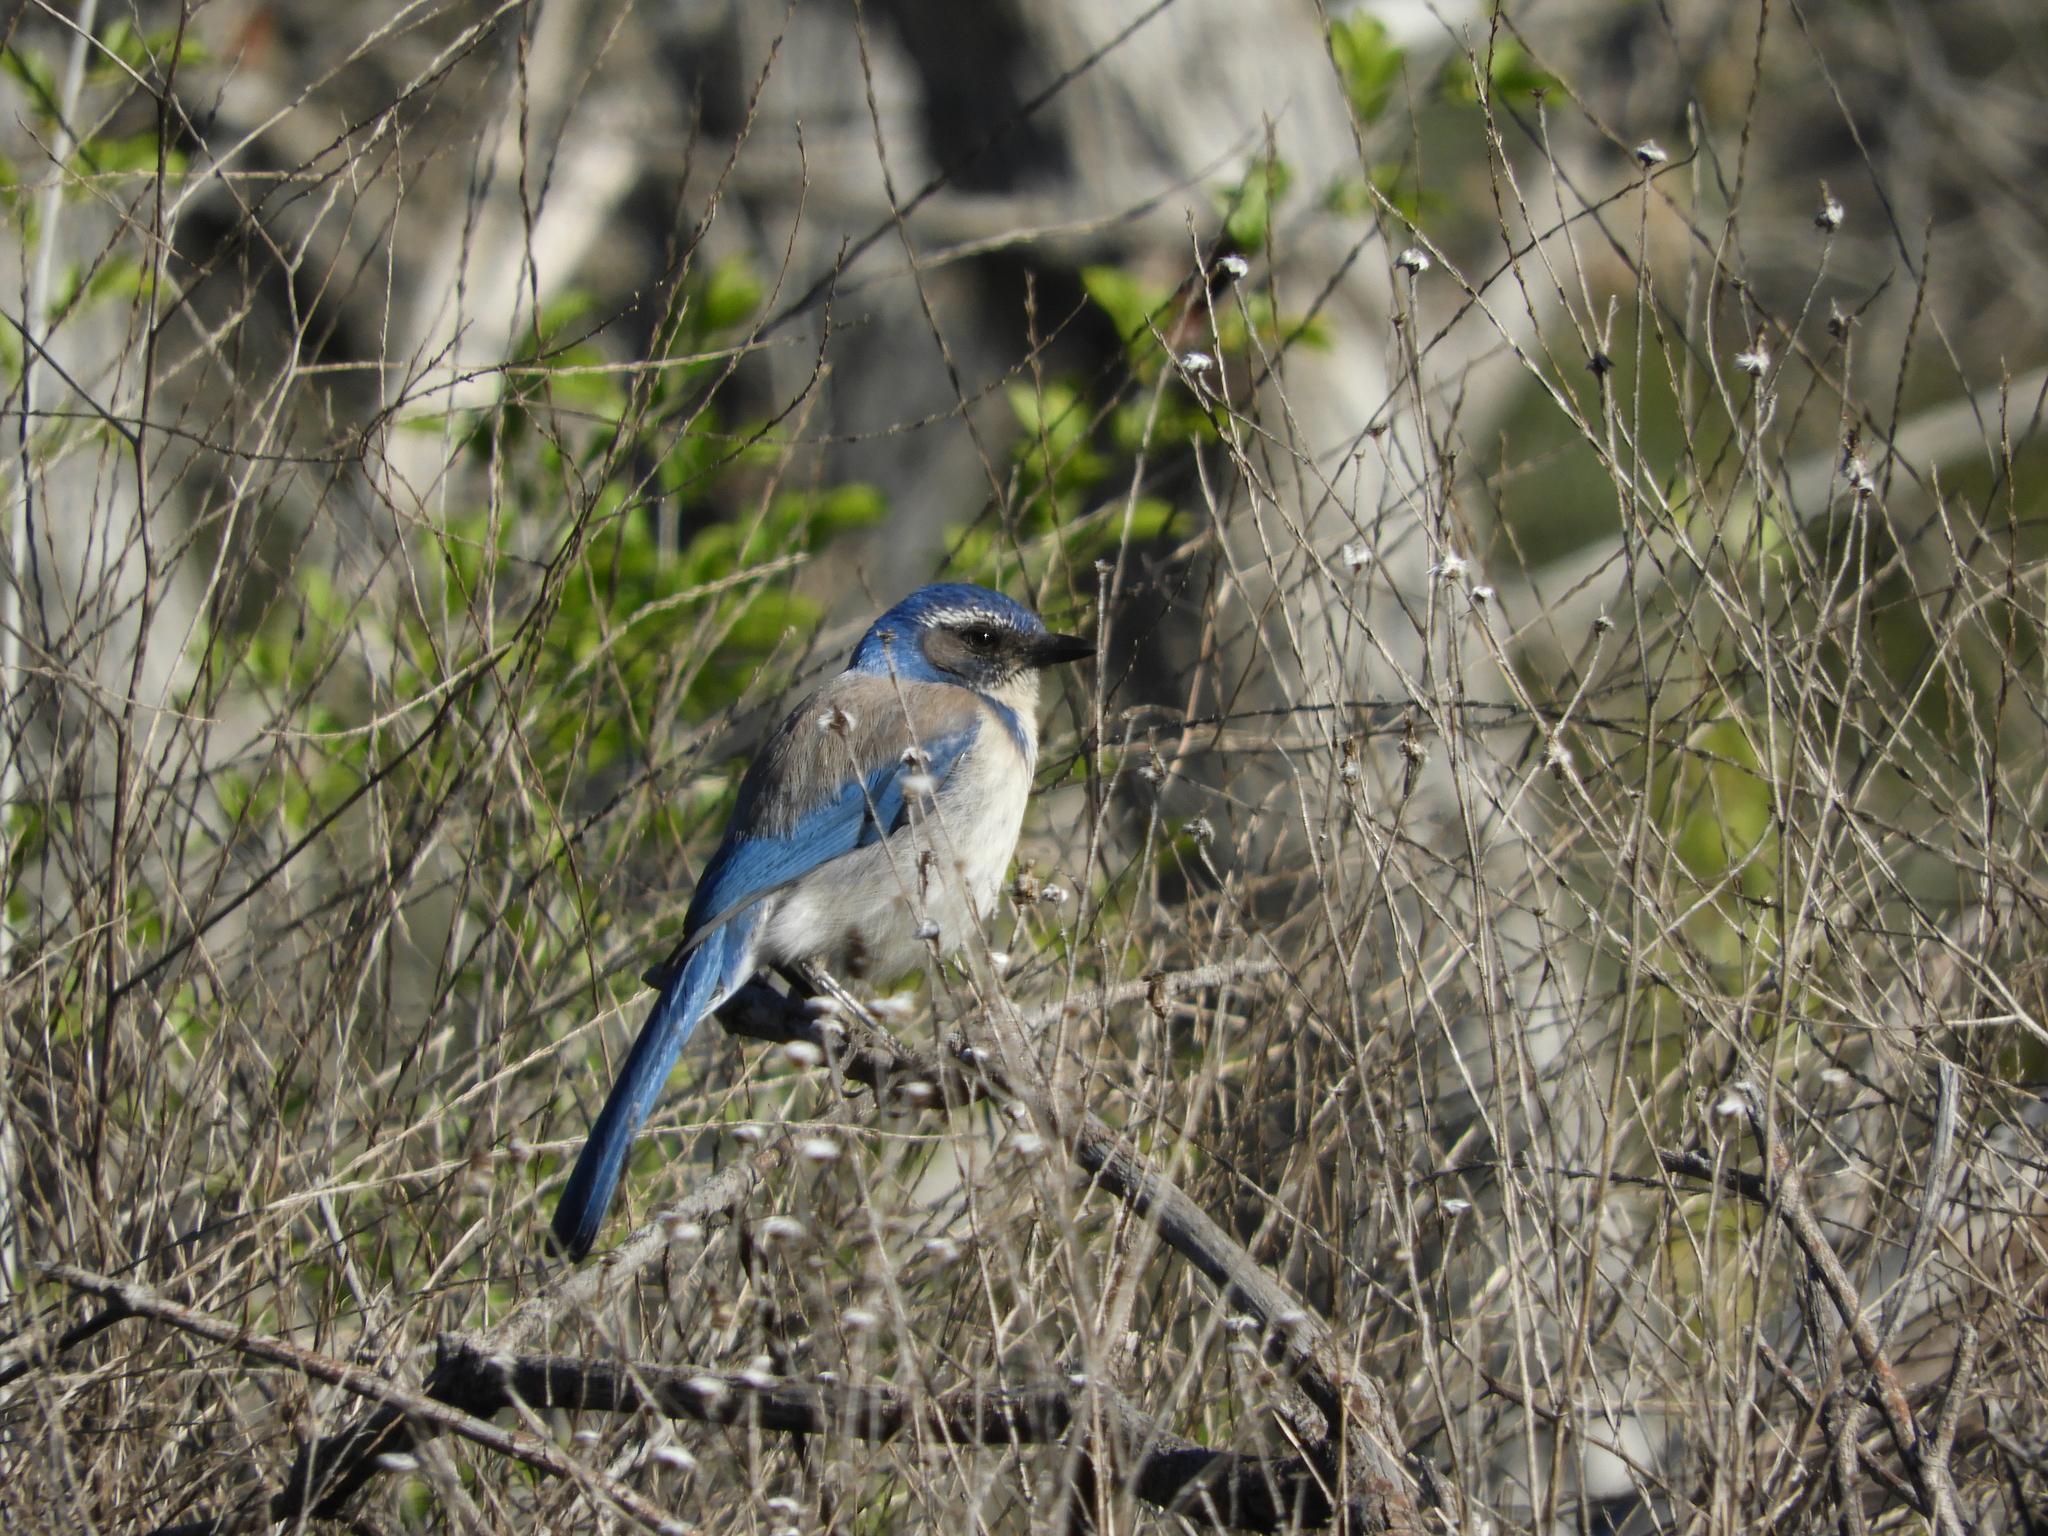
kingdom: Animalia
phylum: Chordata
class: Aves
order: Passeriformes
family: Corvidae
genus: Aphelocoma
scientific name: Aphelocoma californica
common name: California scrub-jay
